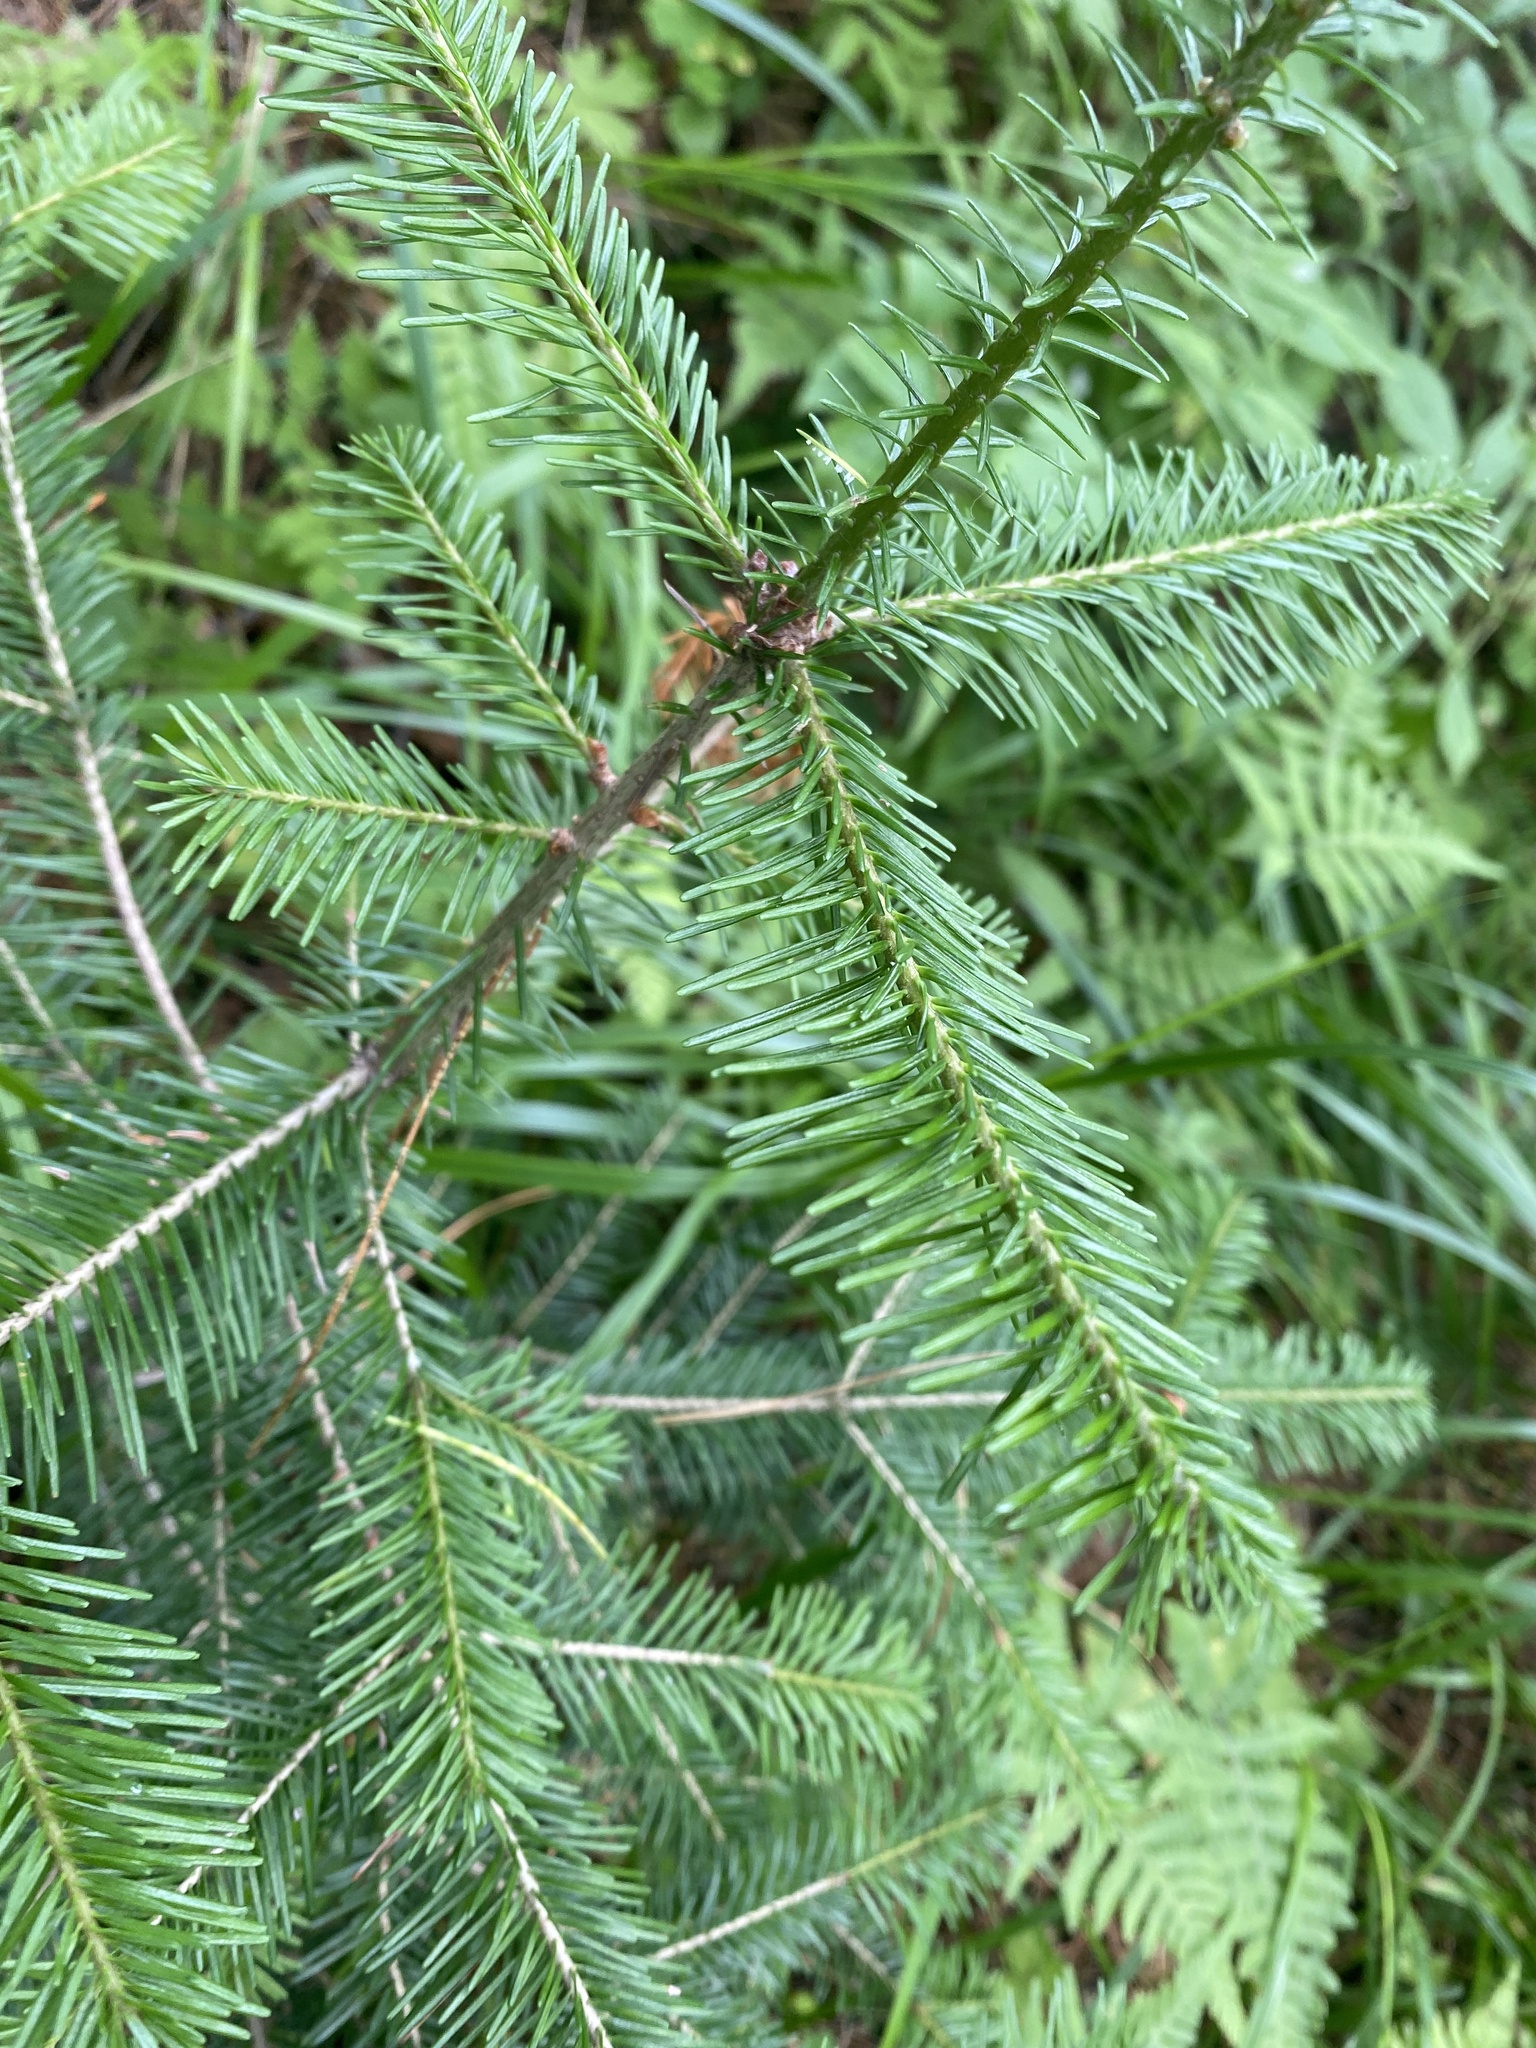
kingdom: Plantae
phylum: Tracheophyta
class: Pinopsida
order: Pinales
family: Pinaceae
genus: Abies
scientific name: Abies sibirica
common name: Siberian fir
